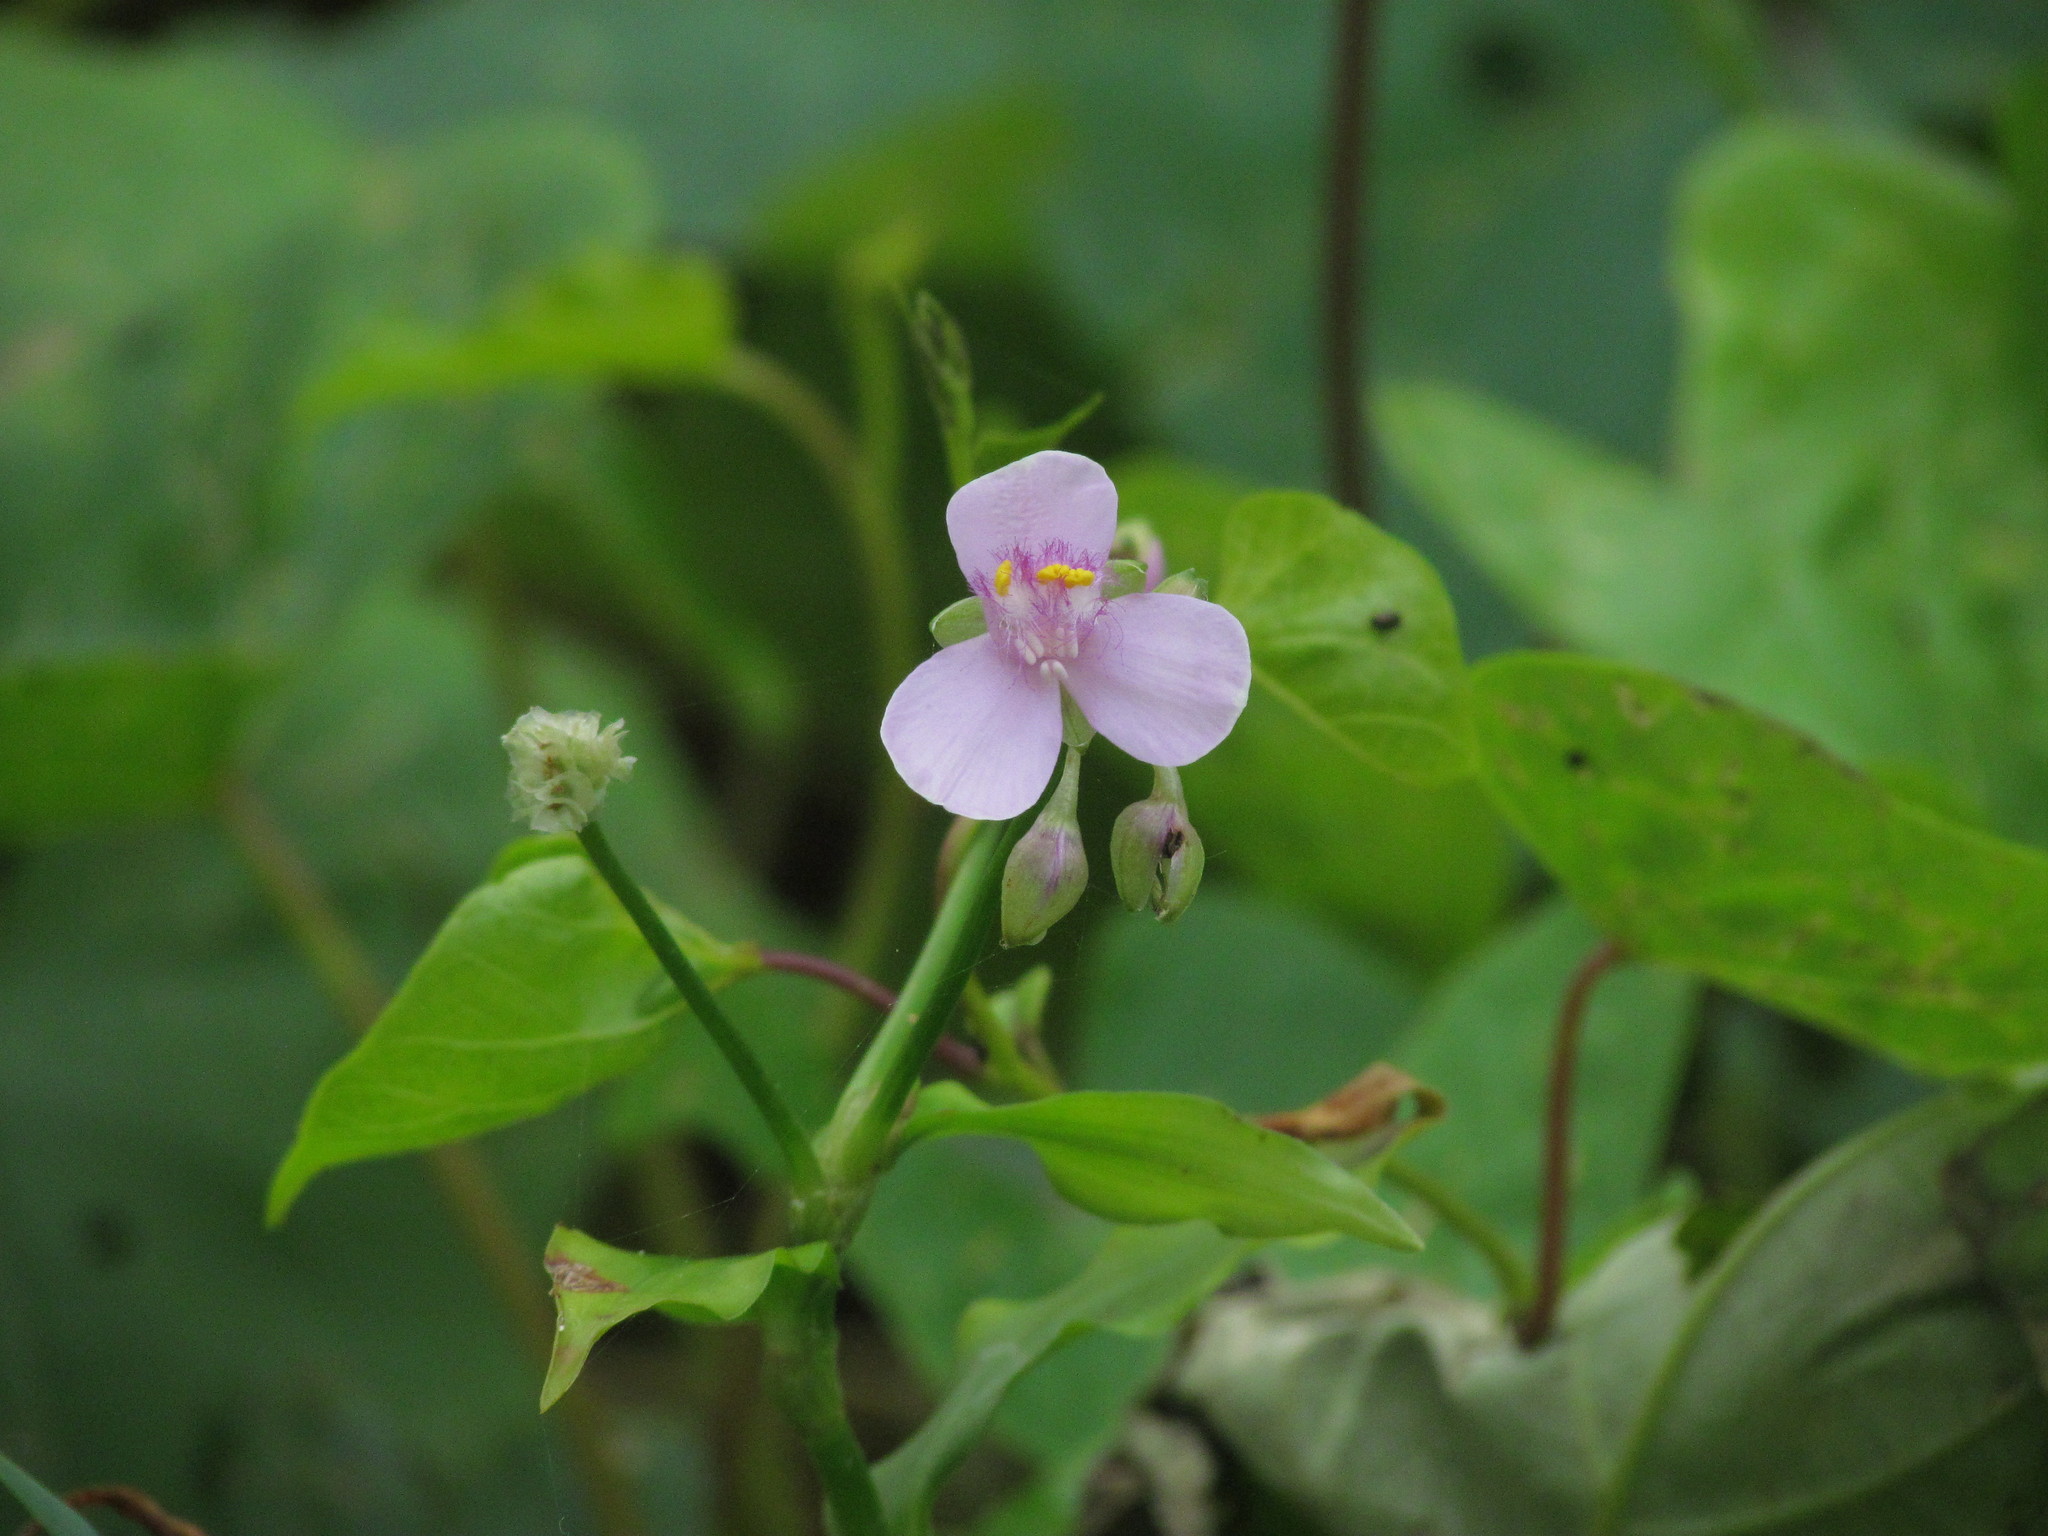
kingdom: Plantae
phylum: Tracheophyta
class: Liliopsida
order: Commelinales
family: Commelinaceae
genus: Callisia
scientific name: Callisia diuretica
